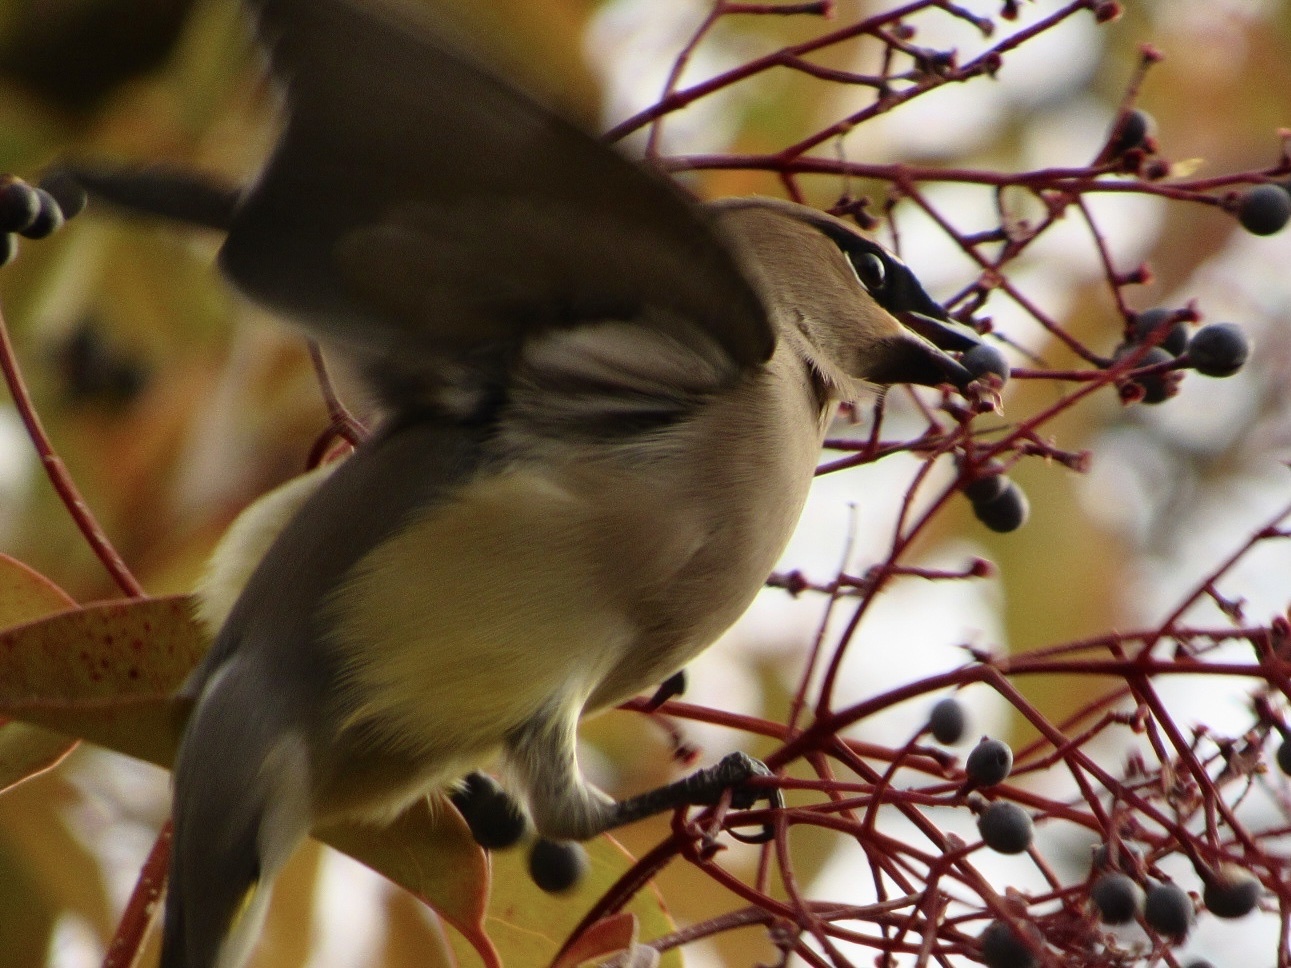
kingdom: Animalia
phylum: Chordata
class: Aves
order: Passeriformes
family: Bombycillidae
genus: Bombycilla
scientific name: Bombycilla cedrorum
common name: Cedar waxwing
